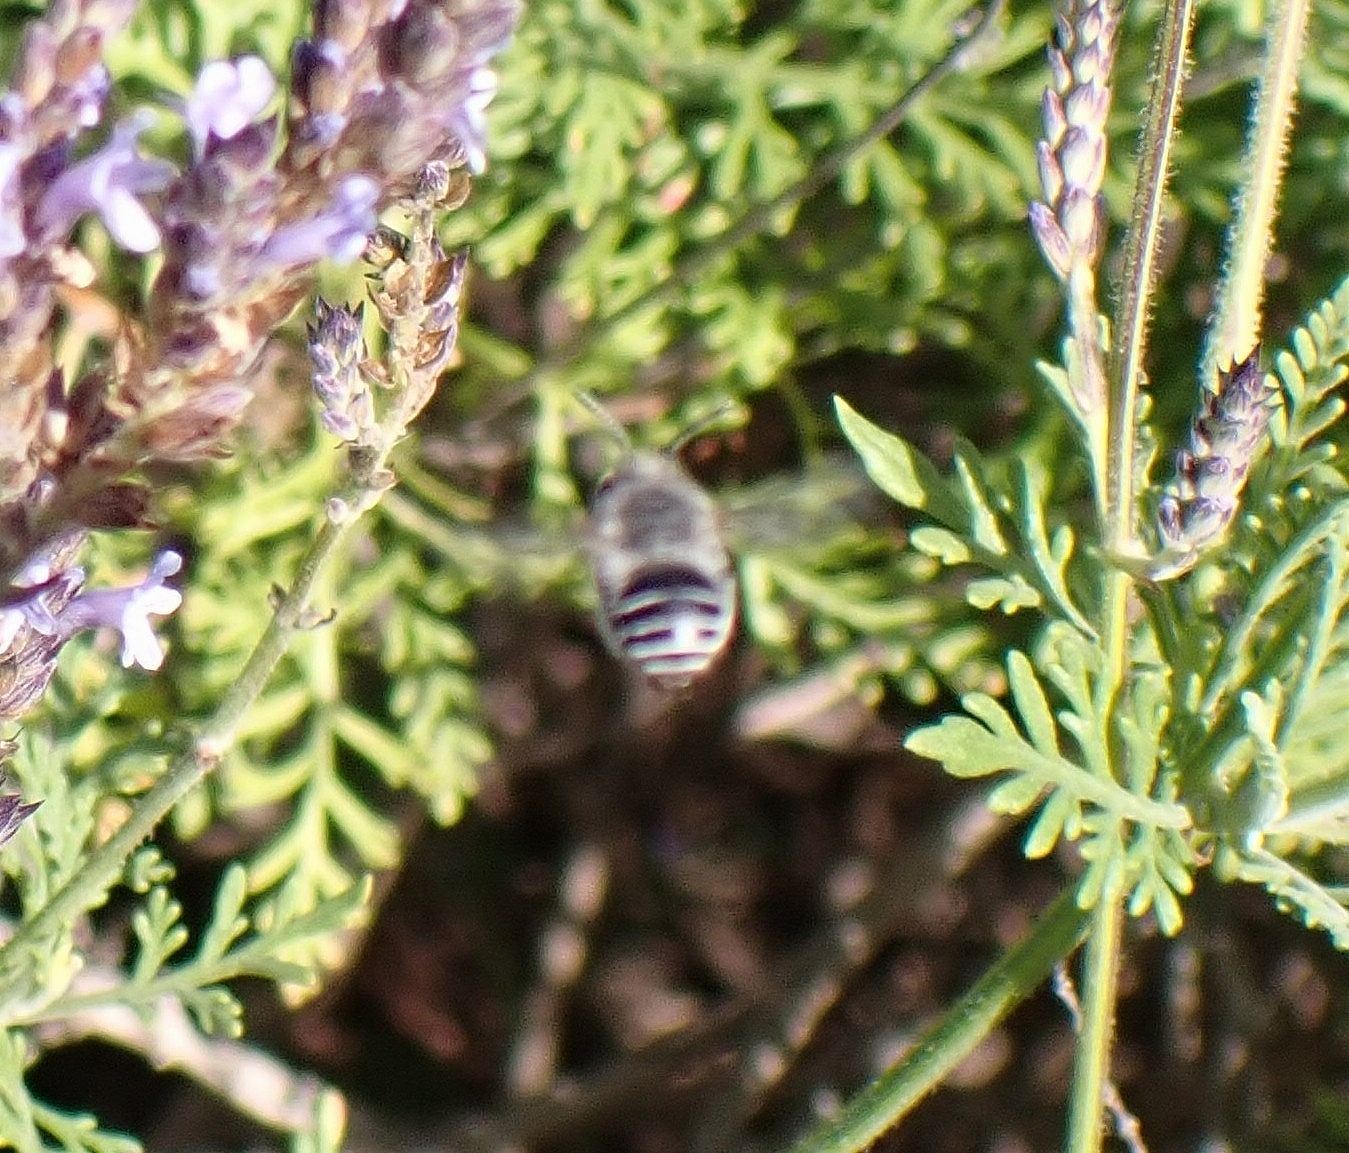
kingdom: Animalia
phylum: Arthropoda
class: Insecta
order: Hymenoptera
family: Apidae
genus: Anthophora
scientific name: Anthophora orotavae
